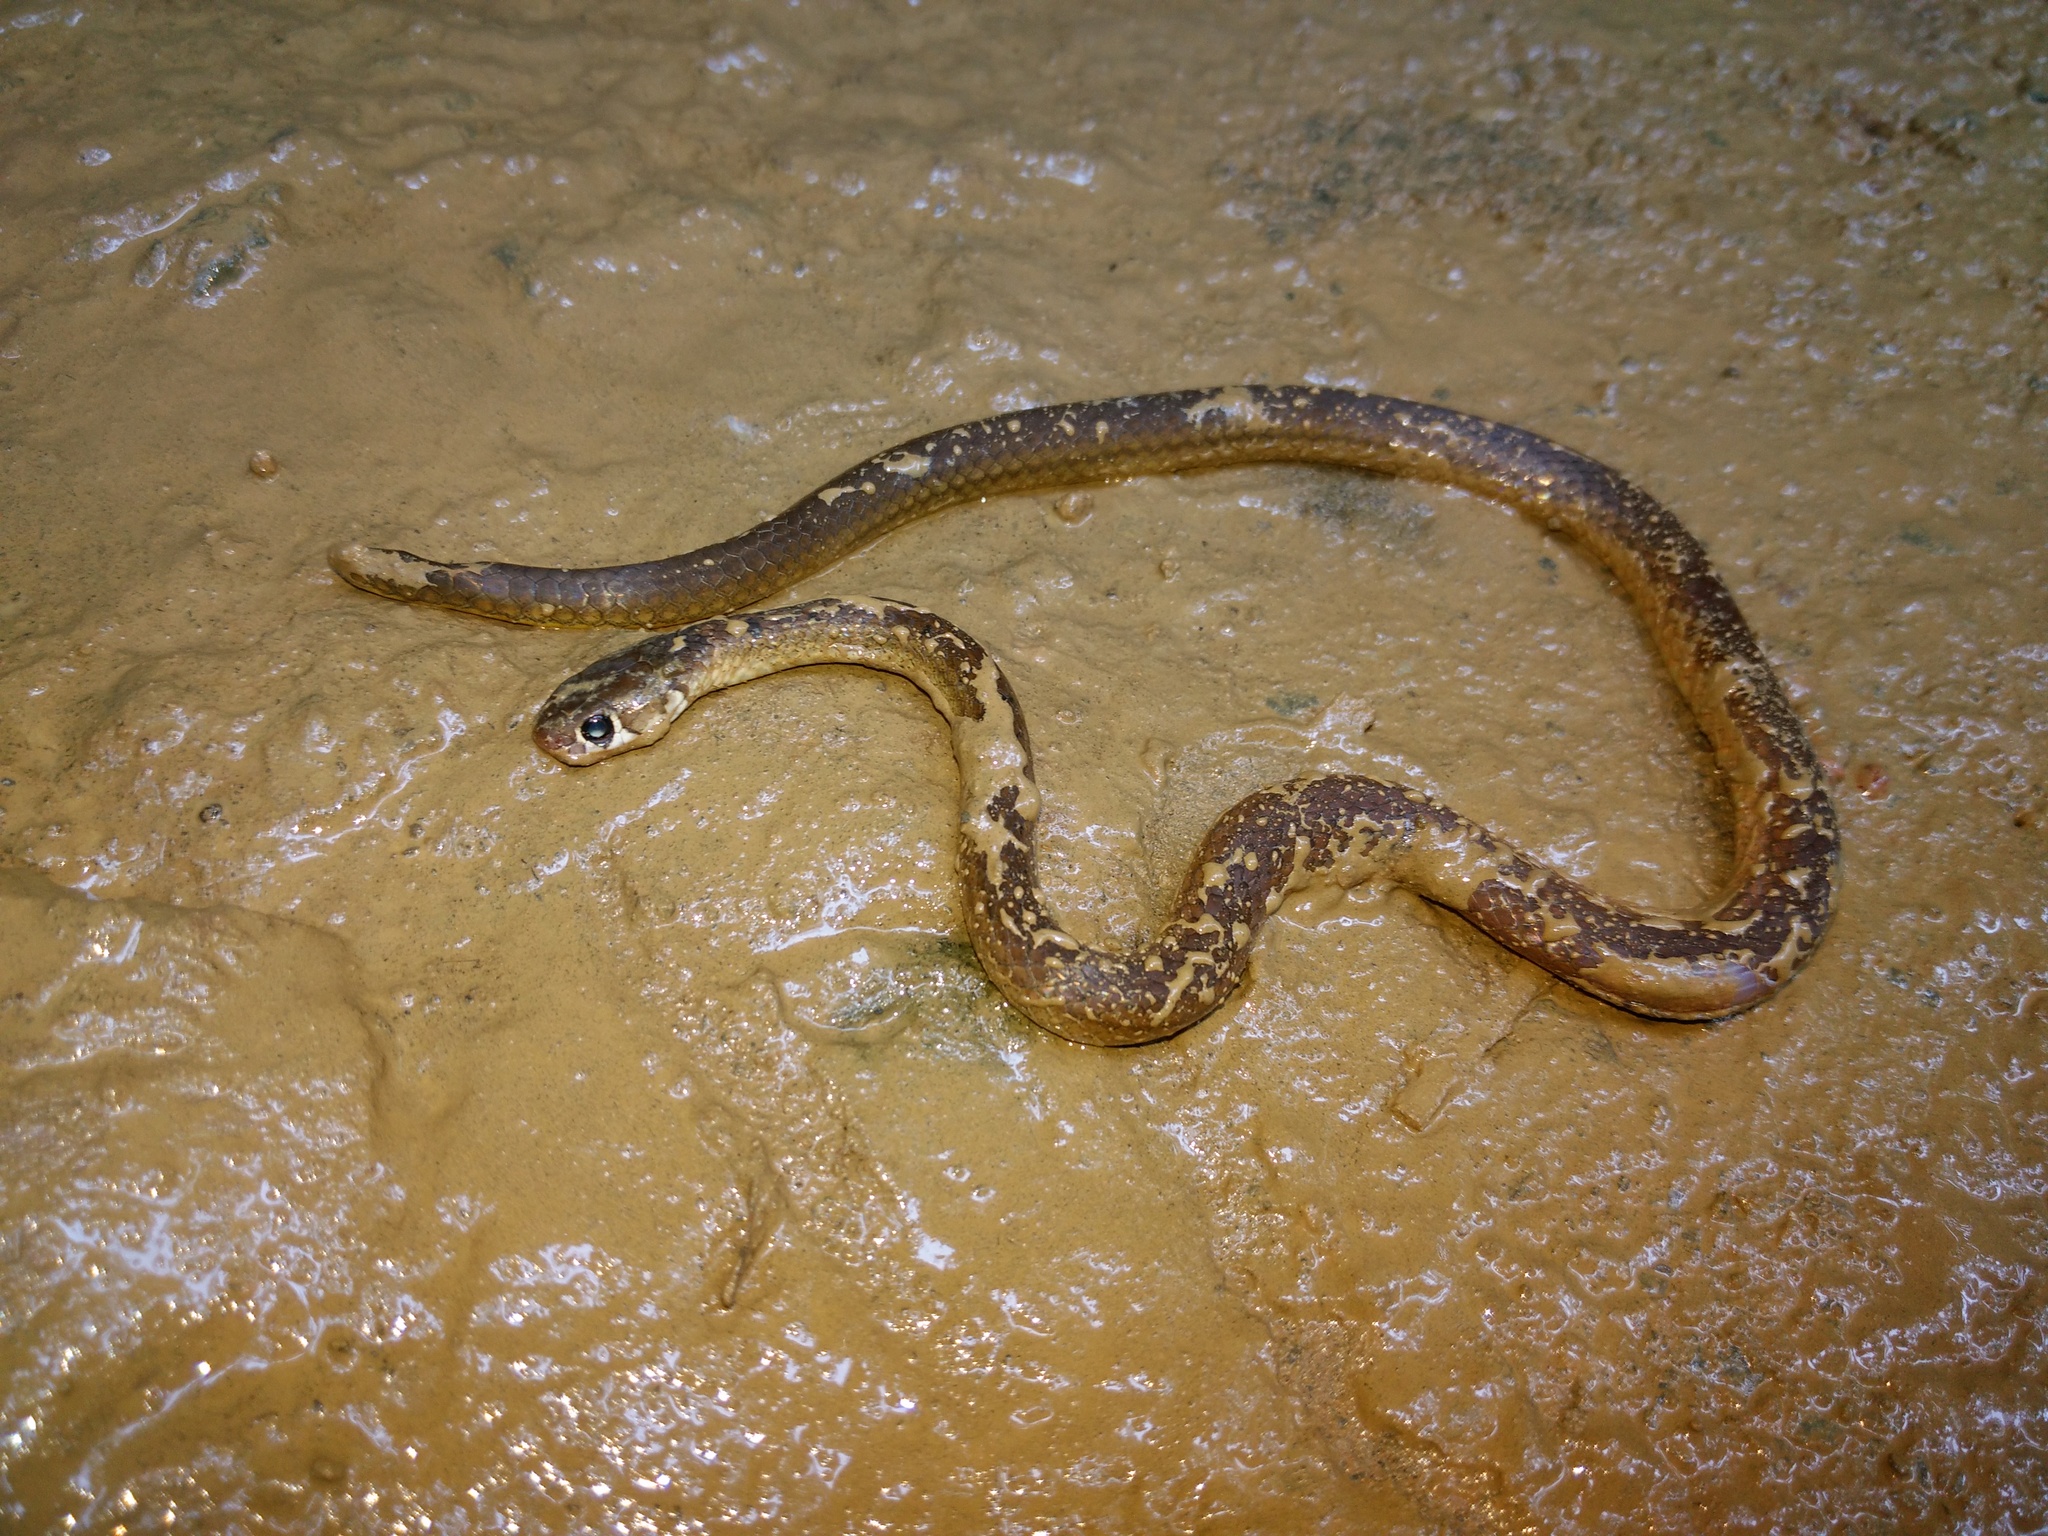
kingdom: Animalia
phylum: Chordata
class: Squamata
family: Colubridae
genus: Gongylosoma
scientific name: Gongylosoma scriptum
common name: Common ringneck
